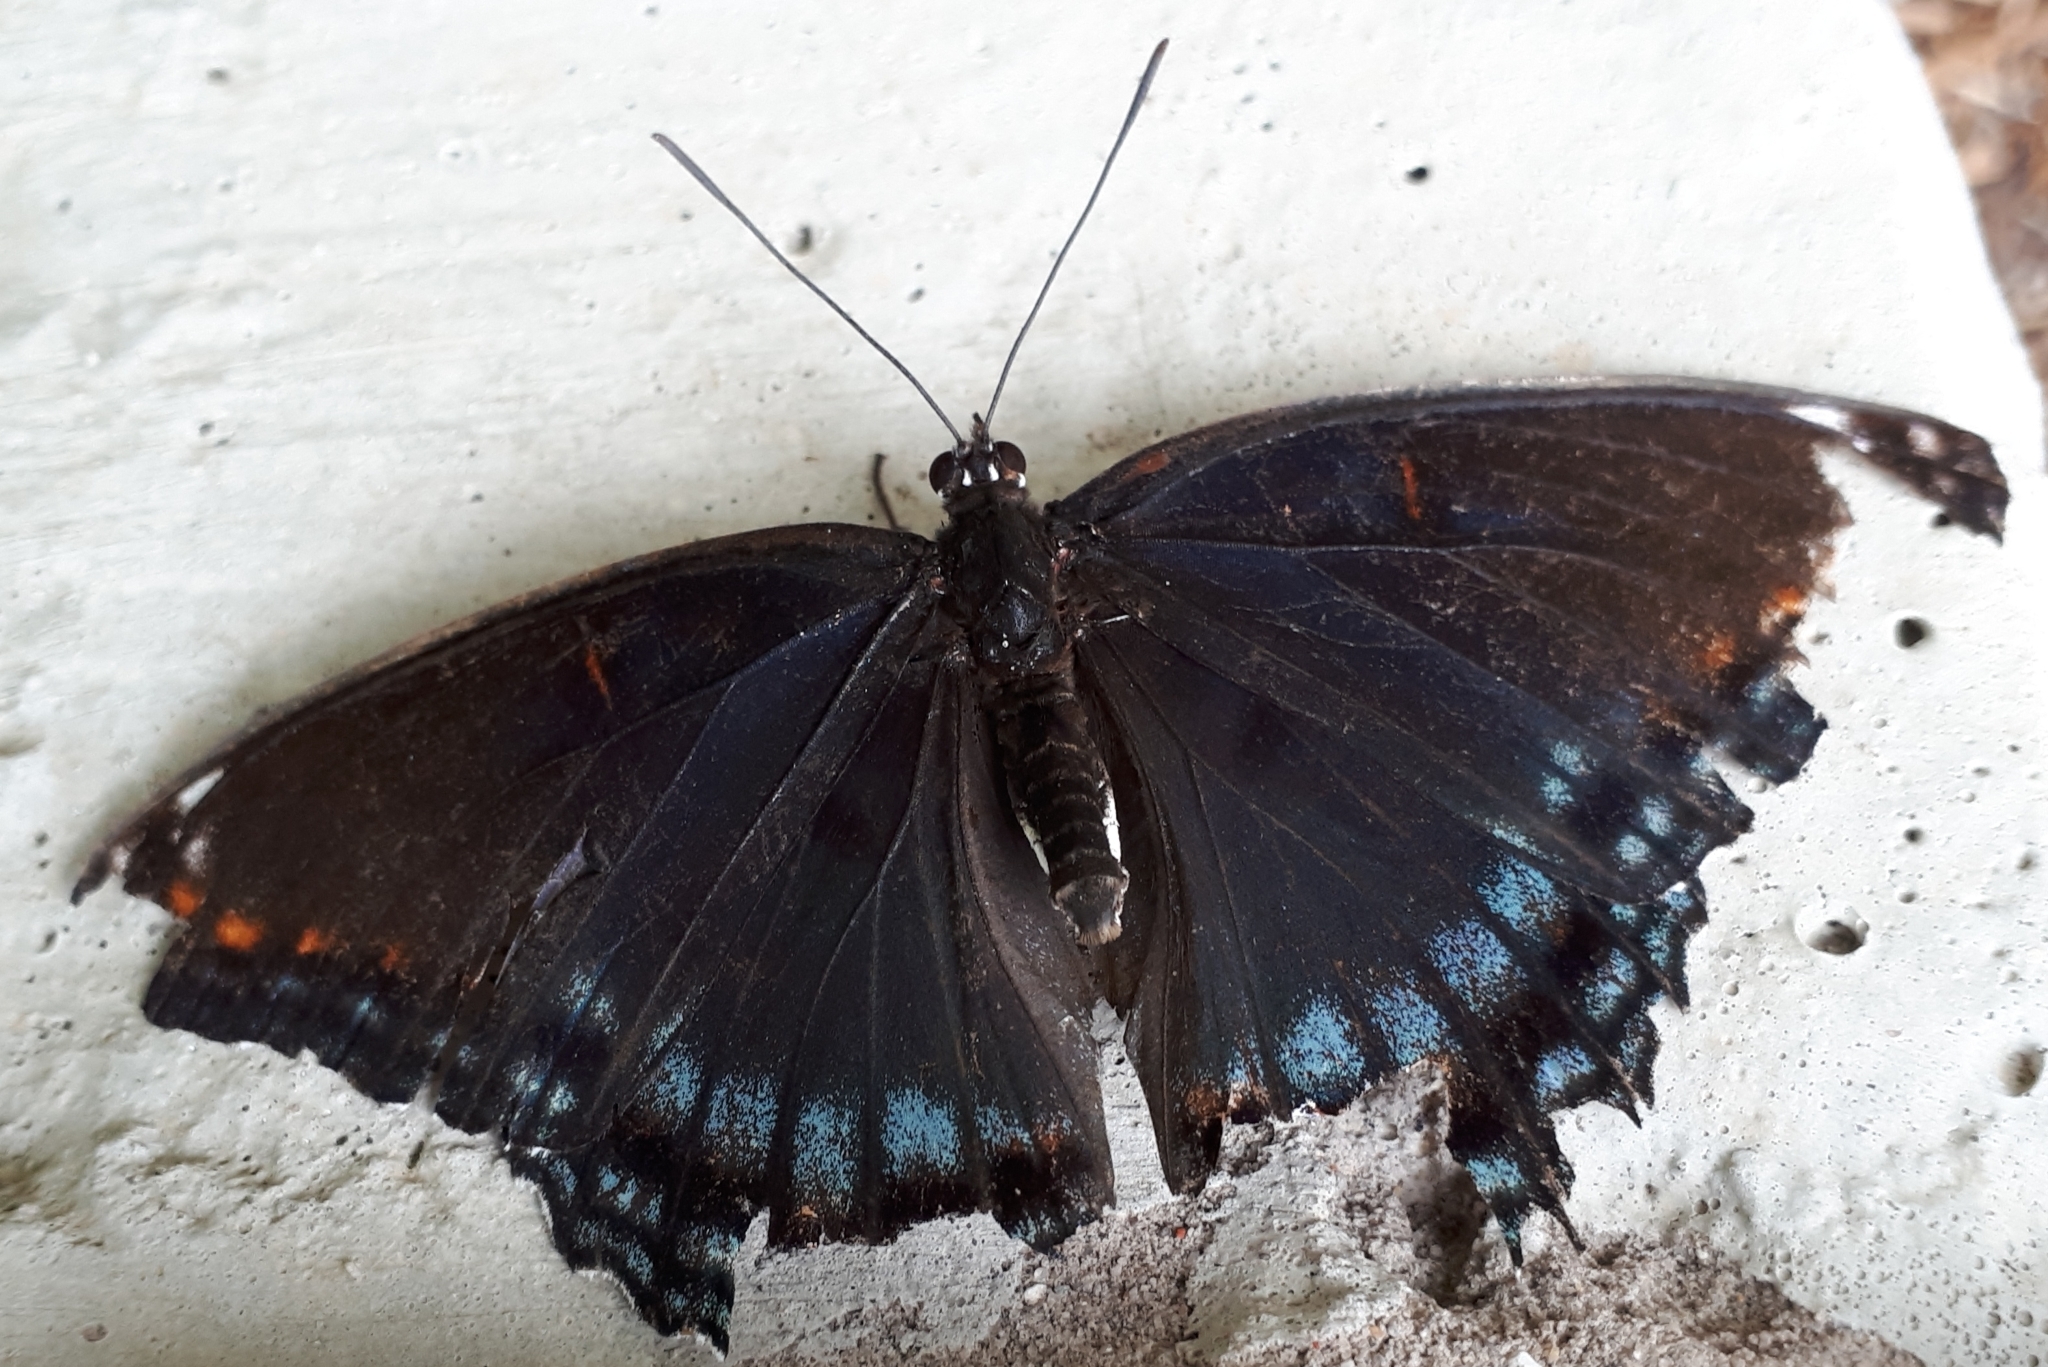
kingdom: Animalia
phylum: Arthropoda
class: Insecta
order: Lepidoptera
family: Nymphalidae
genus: Limenitis
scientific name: Limenitis astyanax
